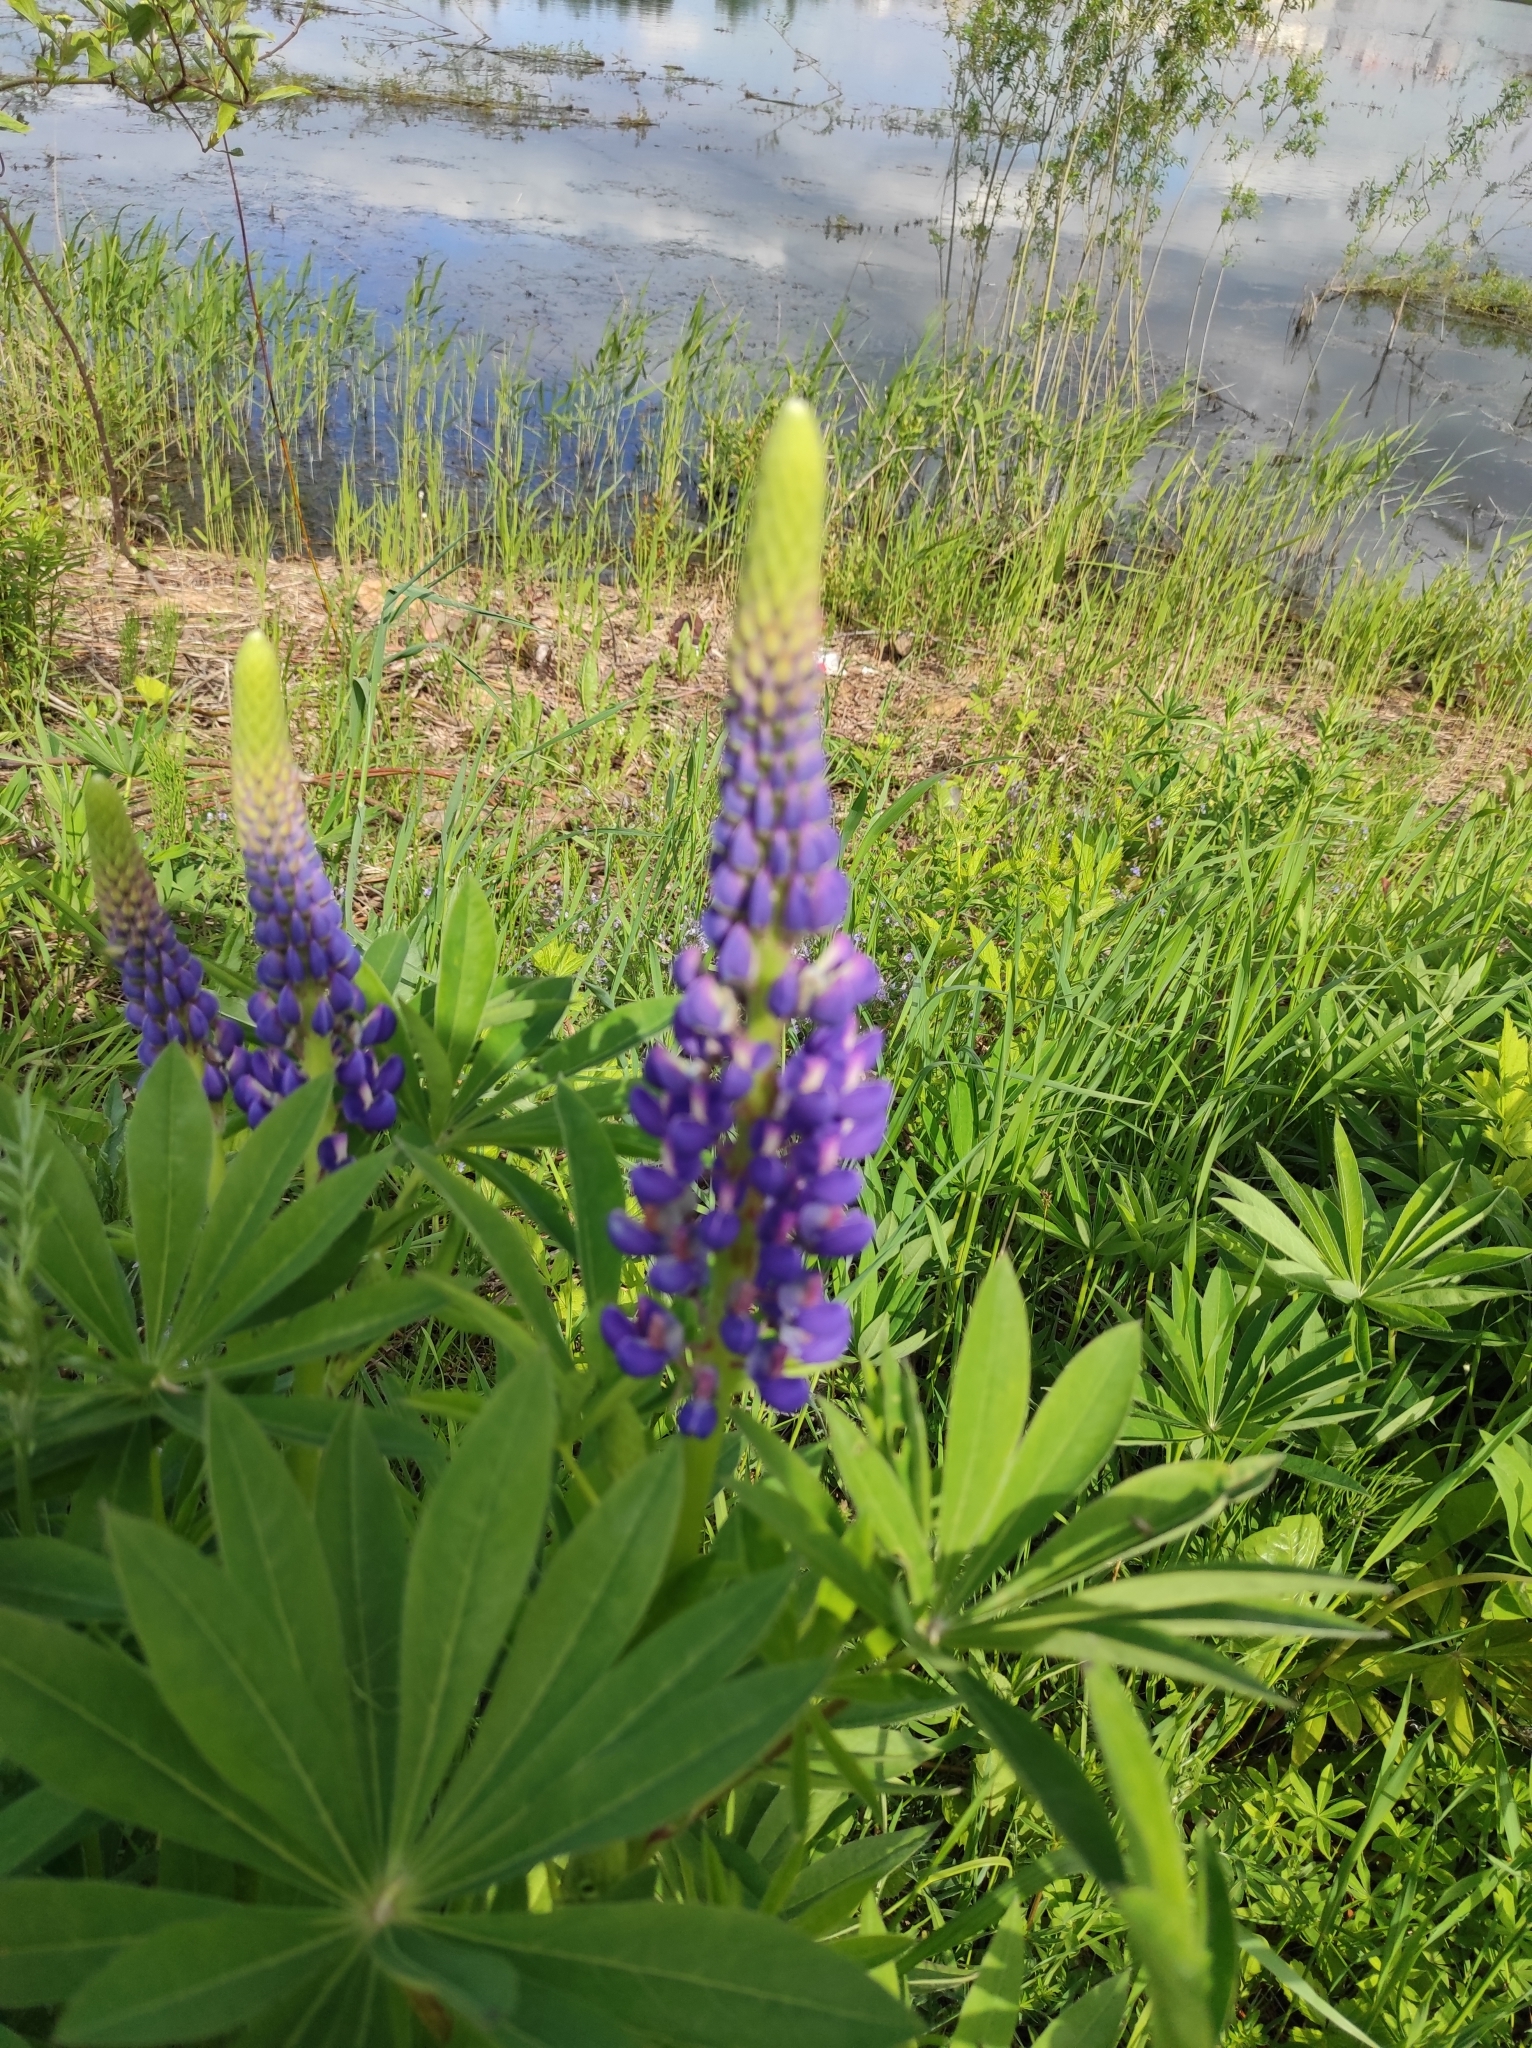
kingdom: Plantae
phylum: Tracheophyta
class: Magnoliopsida
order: Fabales
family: Fabaceae
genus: Lupinus
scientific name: Lupinus polyphyllus
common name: Garden lupin
